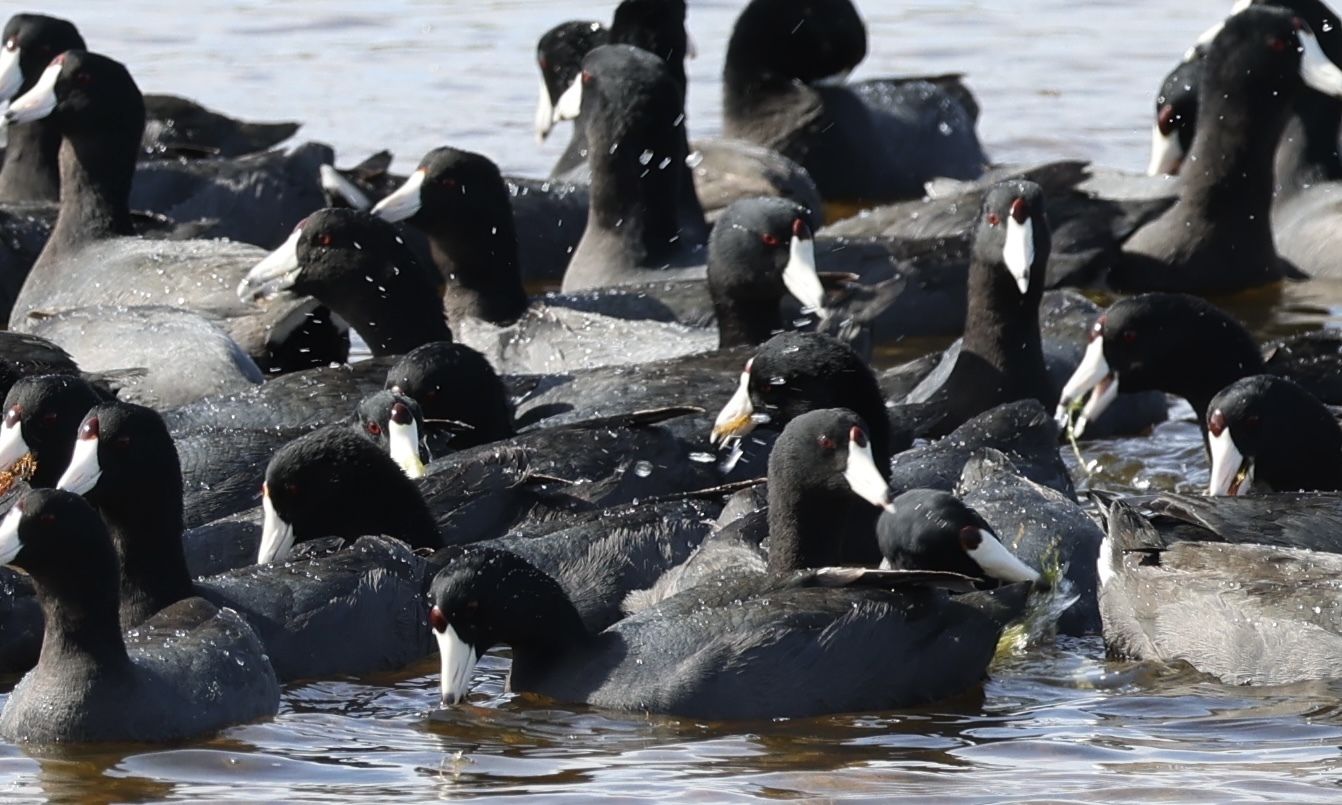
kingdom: Animalia
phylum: Chordata
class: Aves
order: Gruiformes
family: Rallidae
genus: Fulica
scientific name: Fulica americana
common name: American coot
